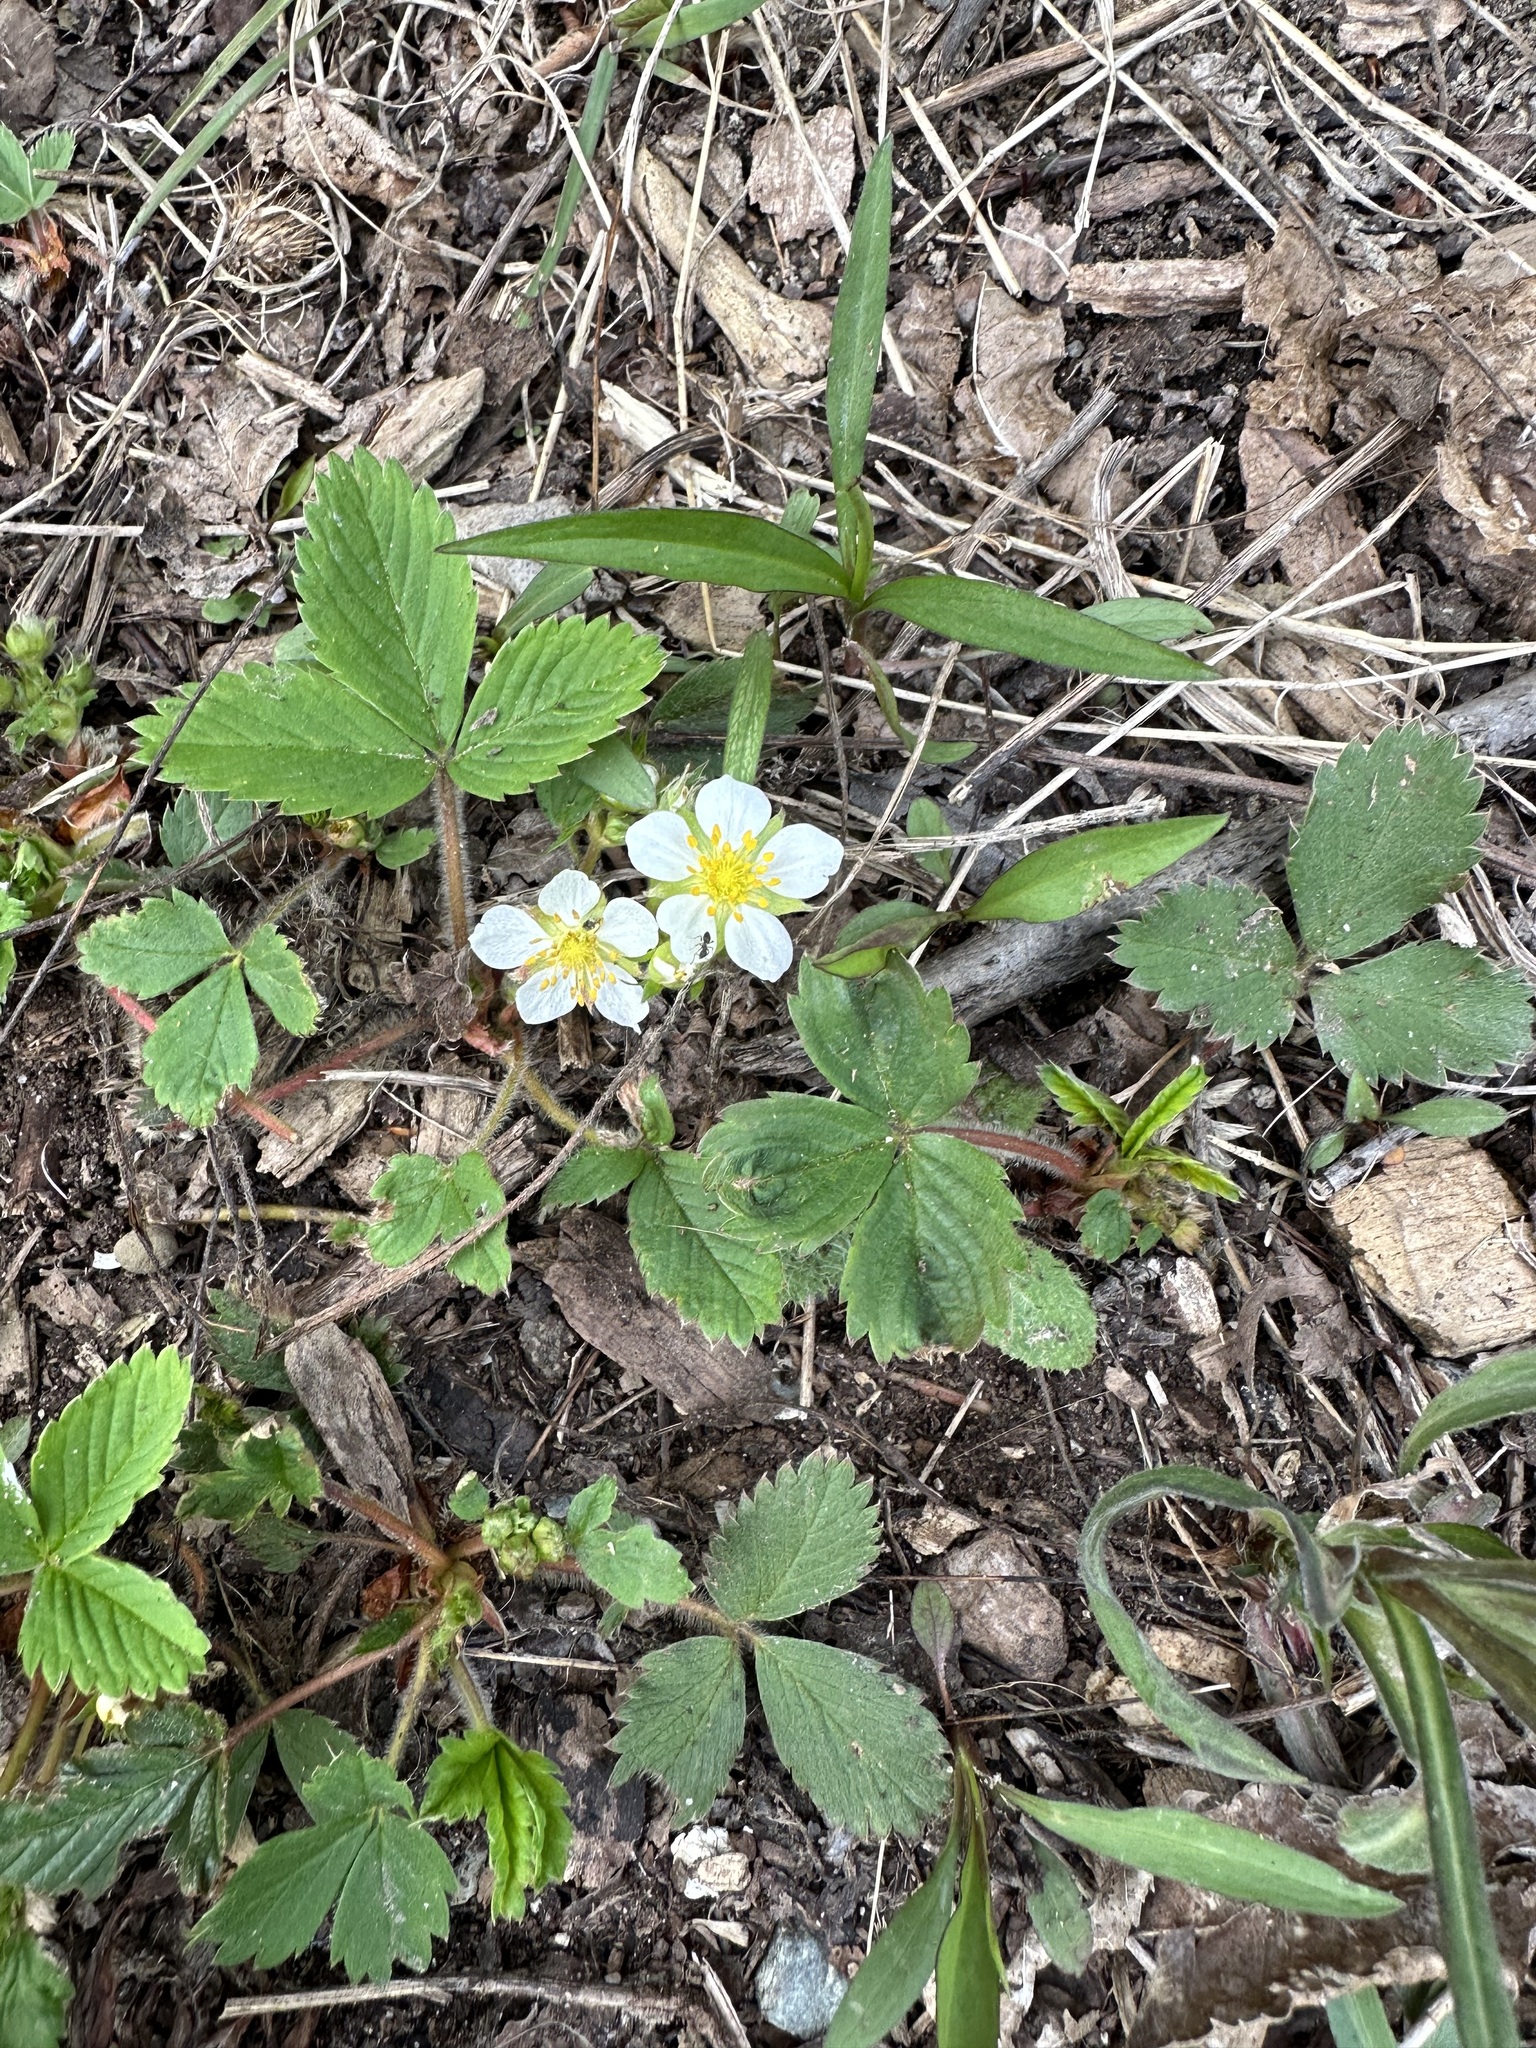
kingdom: Plantae
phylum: Tracheophyta
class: Magnoliopsida
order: Rosales
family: Rosaceae
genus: Fragaria
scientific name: Fragaria vesca
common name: Wild strawberry
